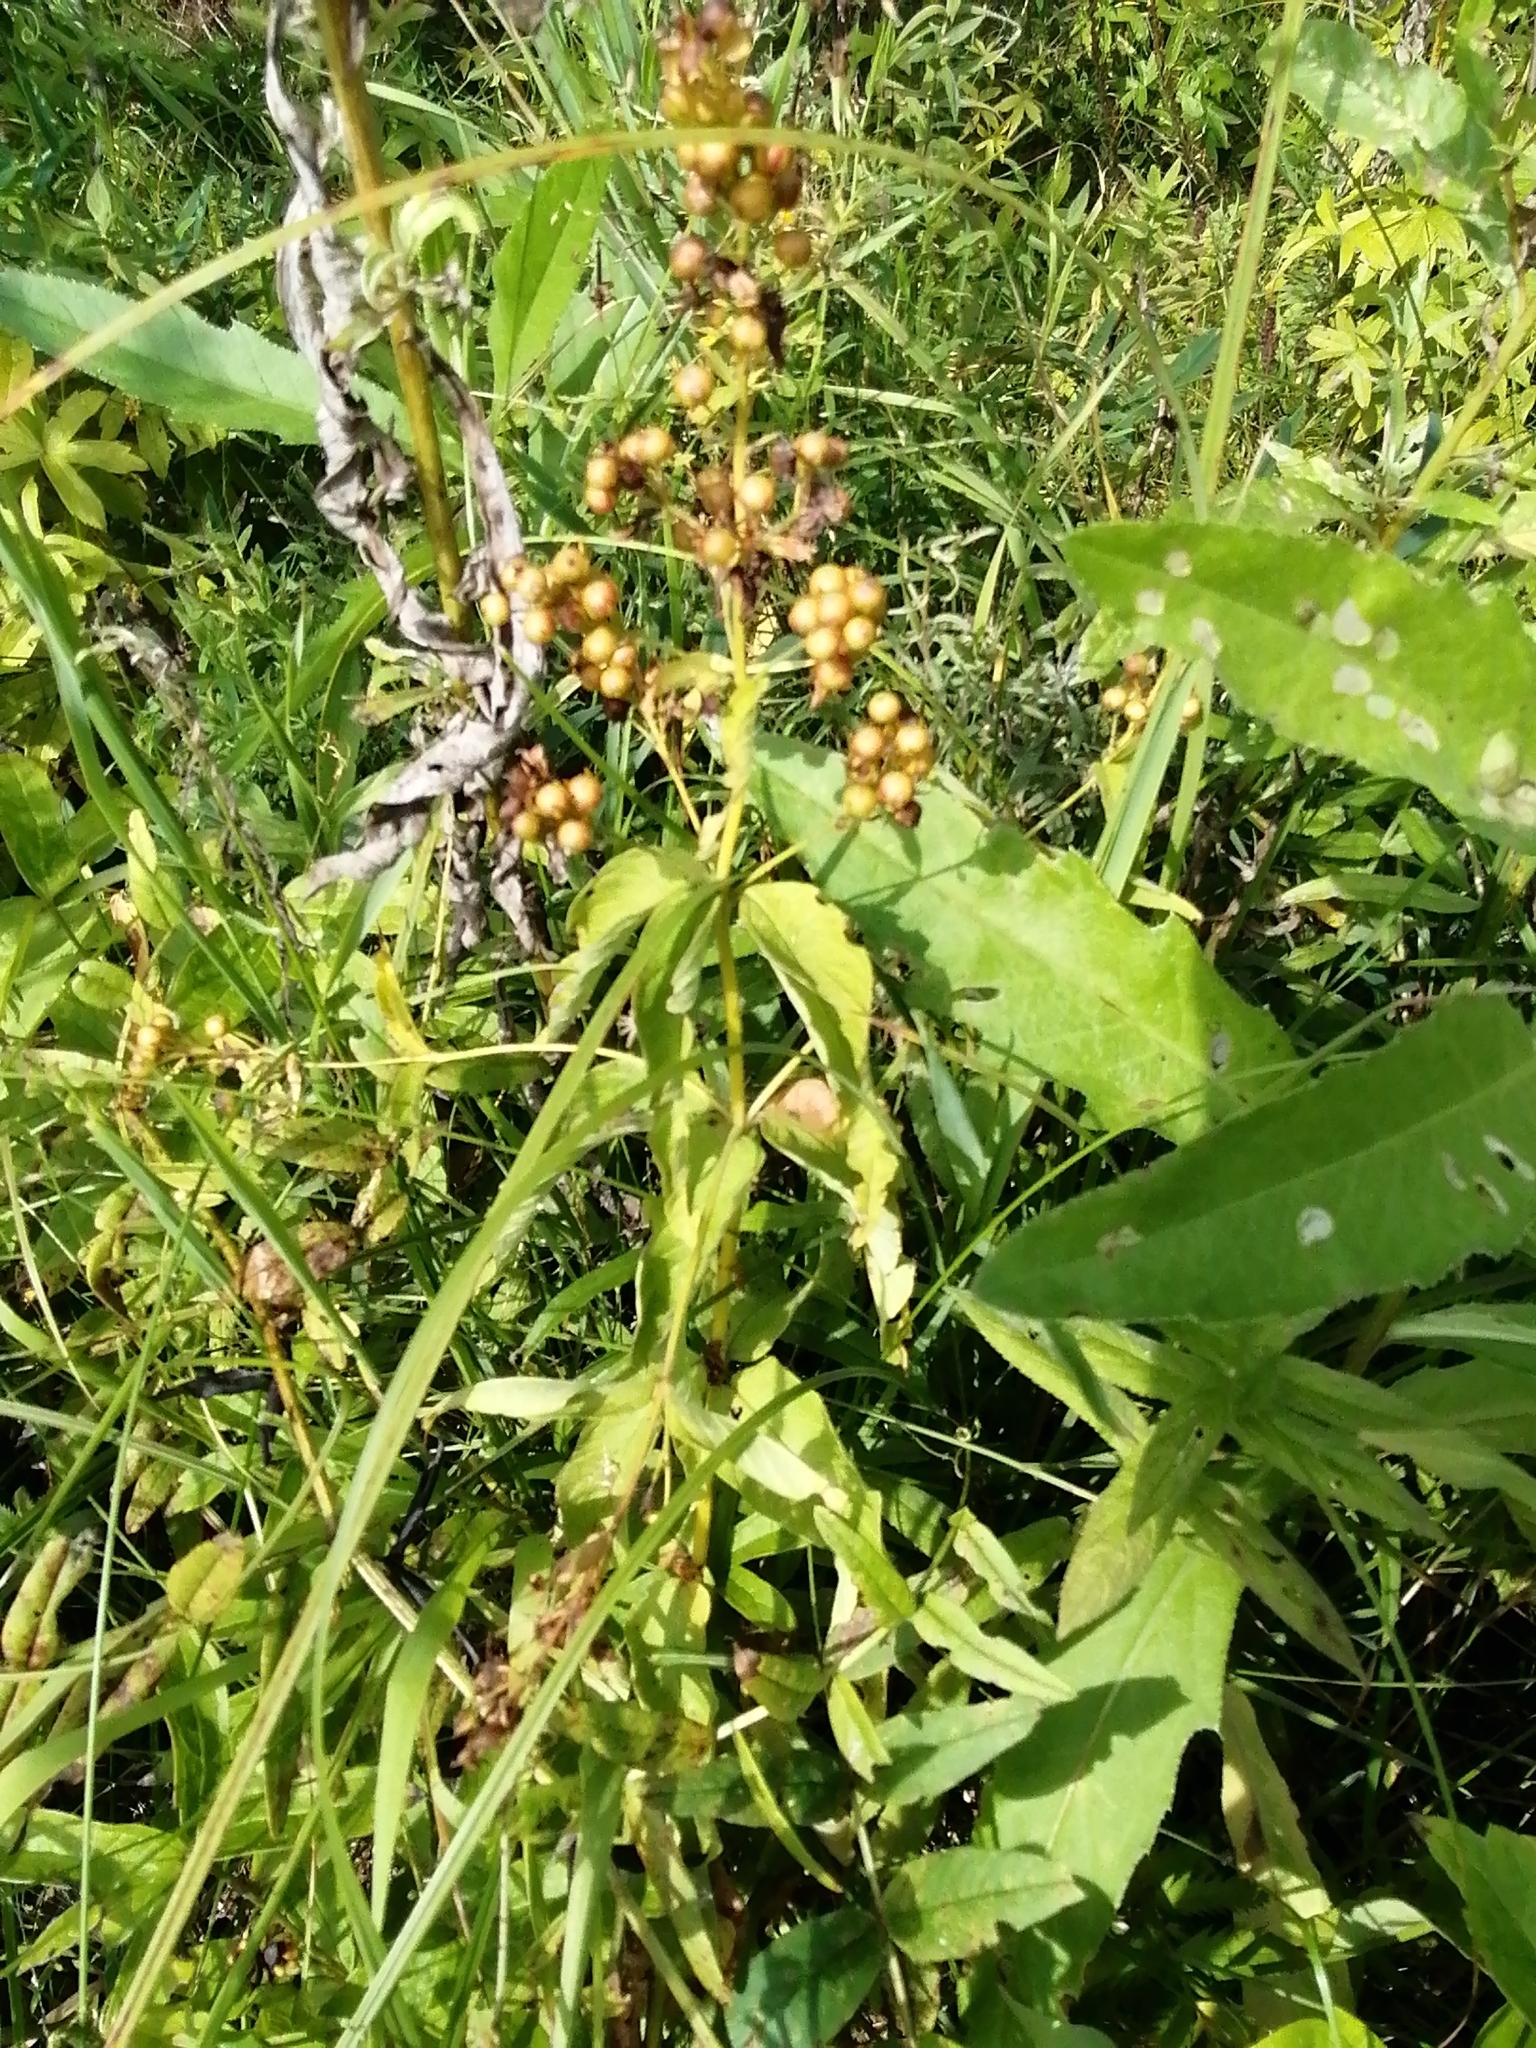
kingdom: Plantae
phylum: Tracheophyta
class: Magnoliopsida
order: Ericales
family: Primulaceae
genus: Lysimachia
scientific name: Lysimachia vulgaris
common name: Yellow loosestrife
